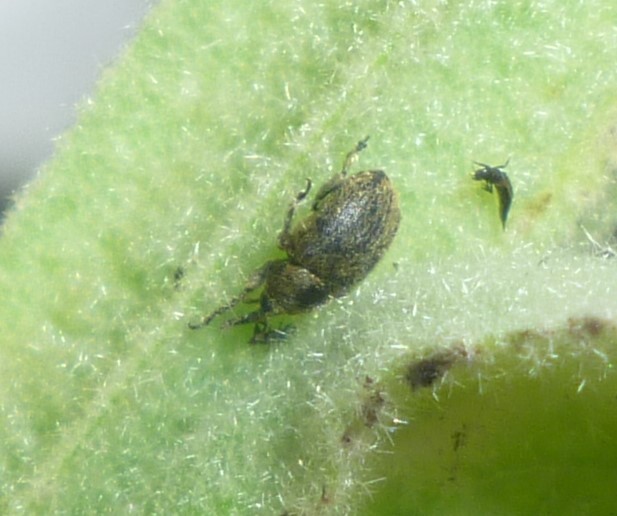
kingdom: Animalia
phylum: Arthropoda
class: Insecta
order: Coleoptera
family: Curculionidae
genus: Rhinusa
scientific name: Rhinusa tetra
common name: Weevil
